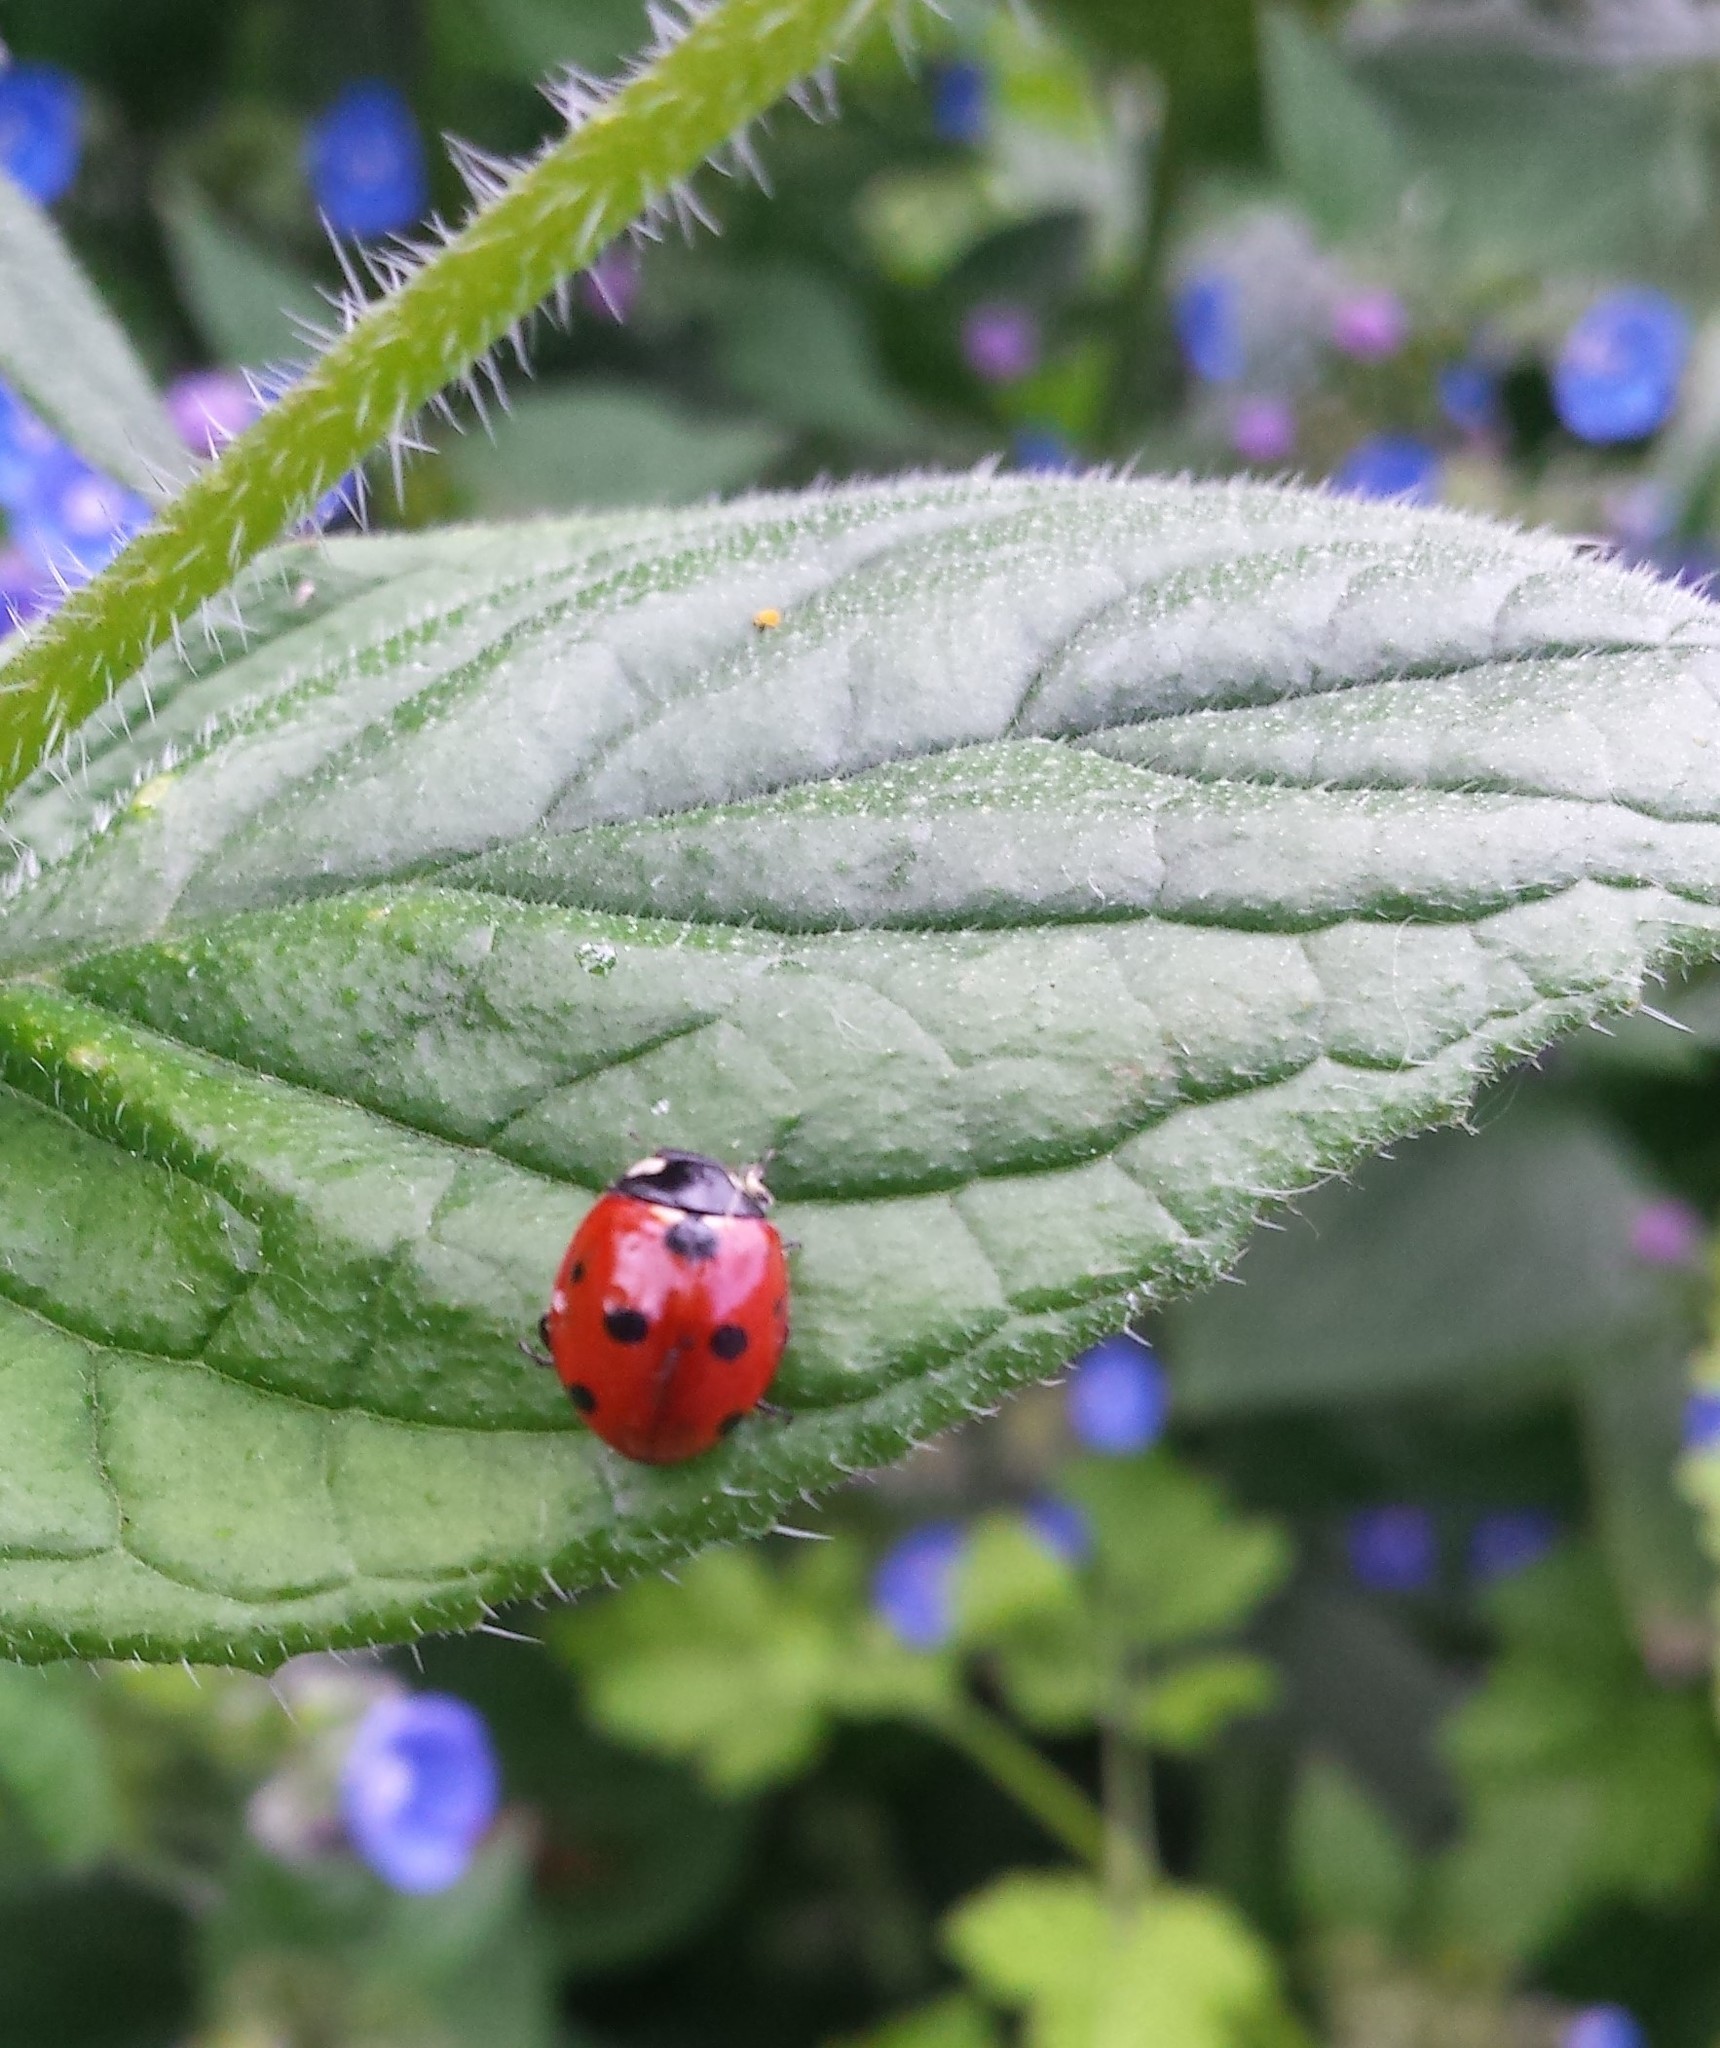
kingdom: Animalia
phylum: Arthropoda
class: Insecta
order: Coleoptera
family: Coccinellidae
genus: Coccinella
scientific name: Coccinella septempunctata
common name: Sevenspotted lady beetle
